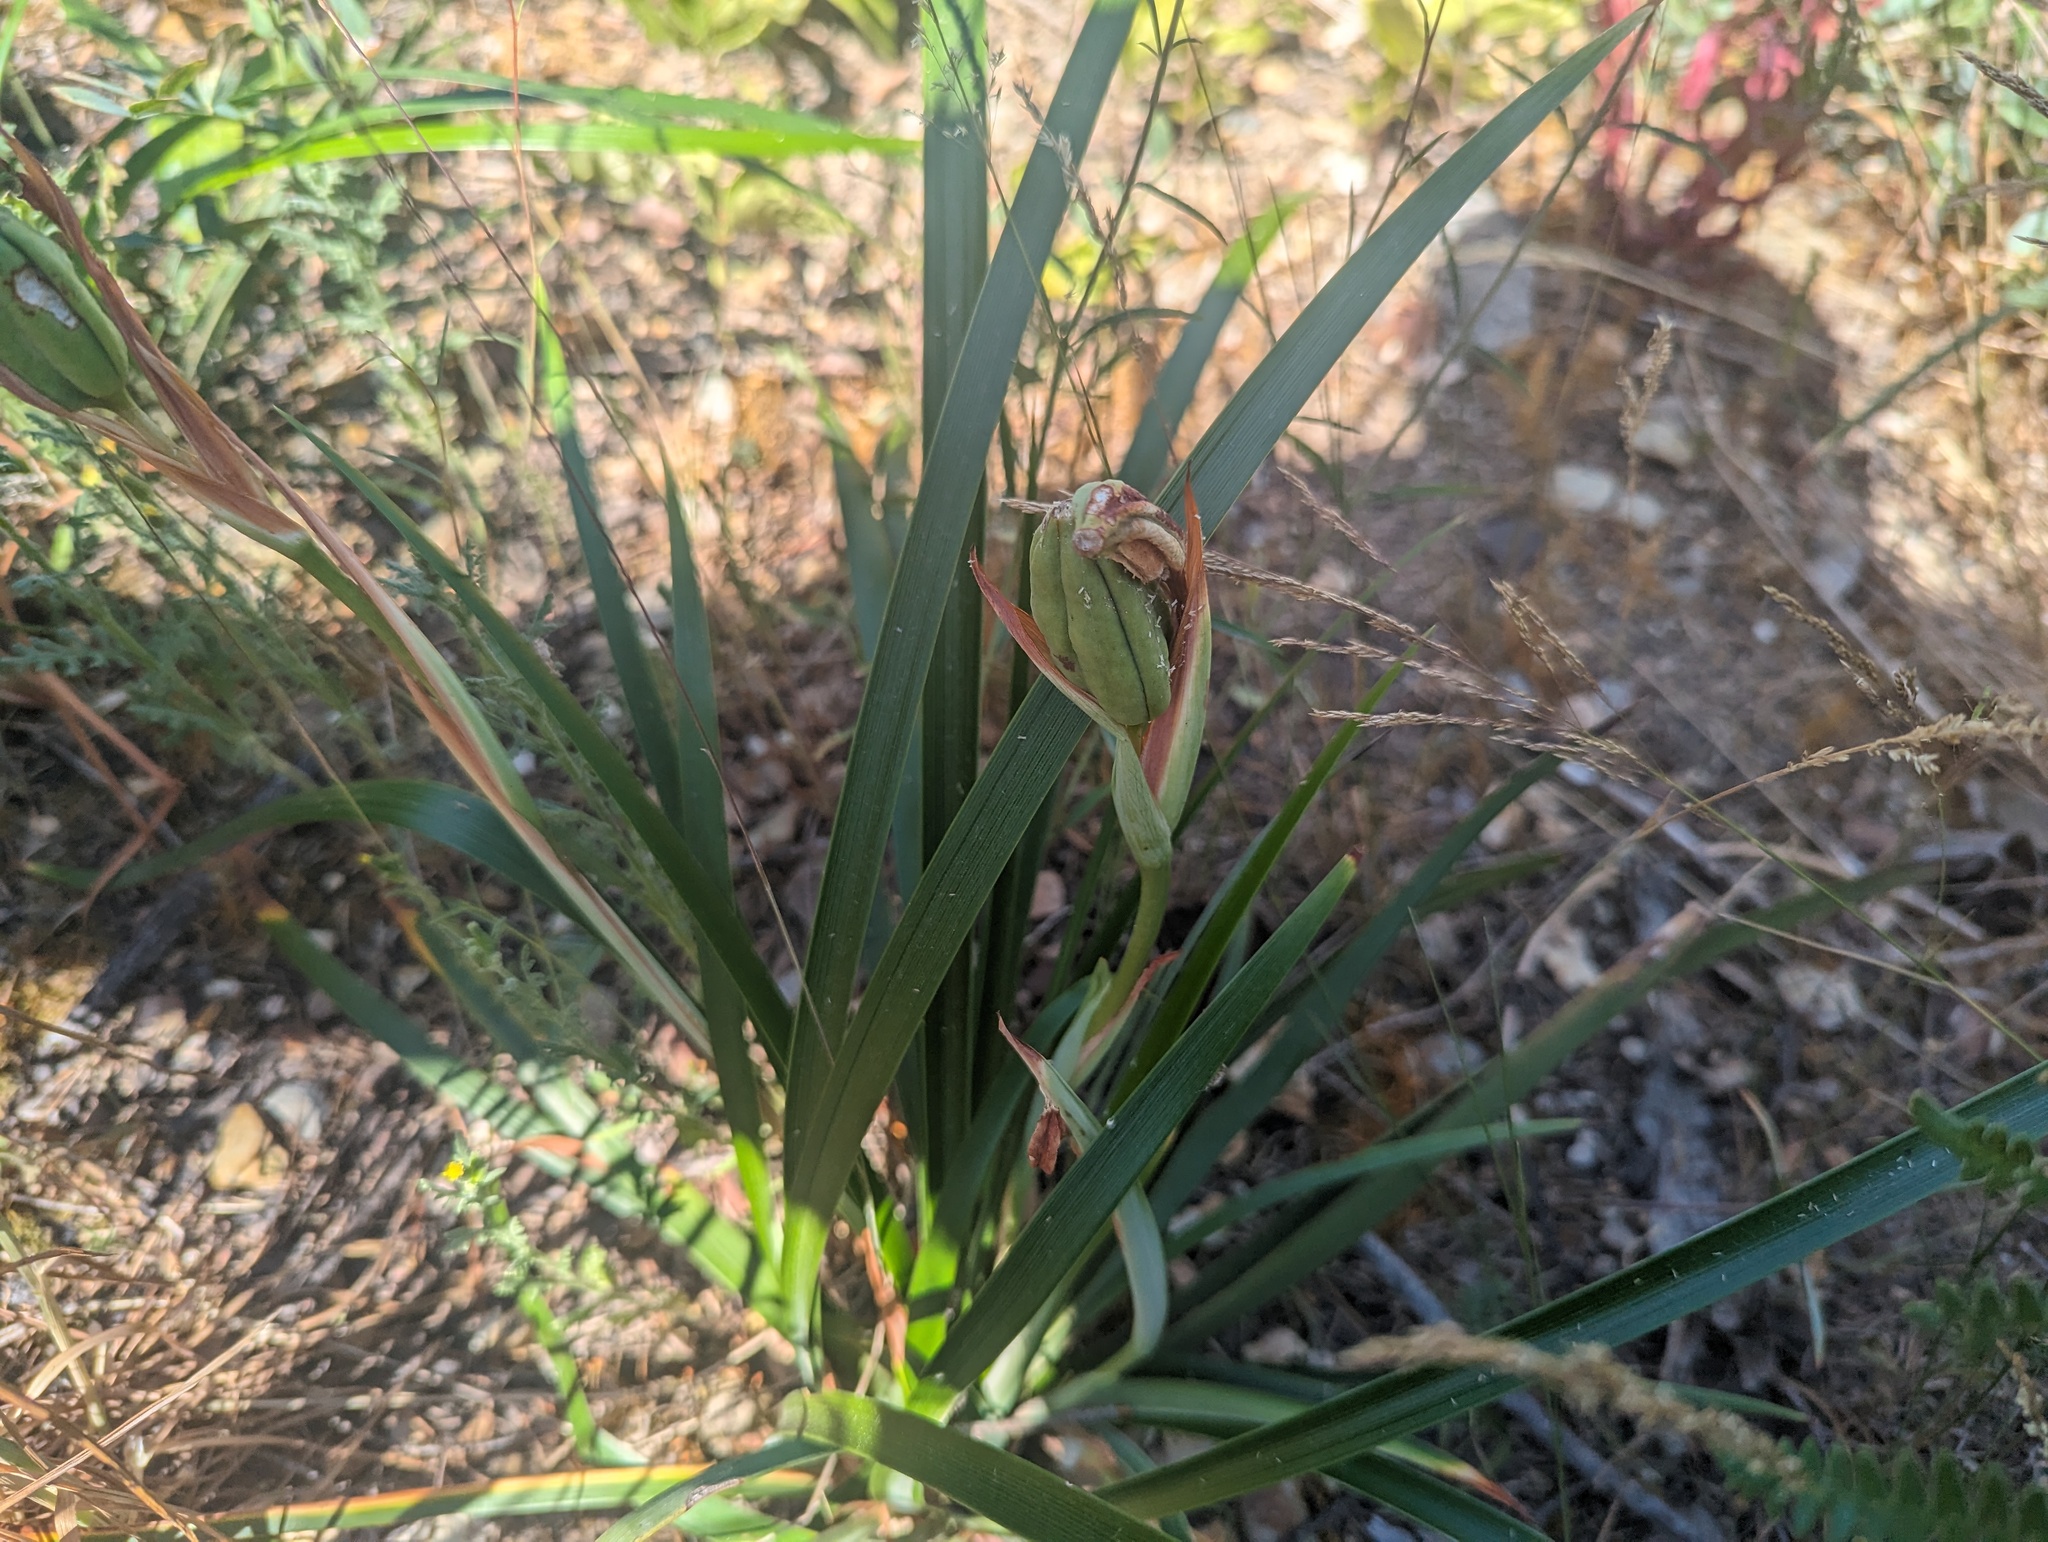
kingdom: Plantae
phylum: Tracheophyta
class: Liliopsida
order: Asparagales
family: Iridaceae
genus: Iris
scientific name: Iris bracteata
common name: Siskiyou iris
